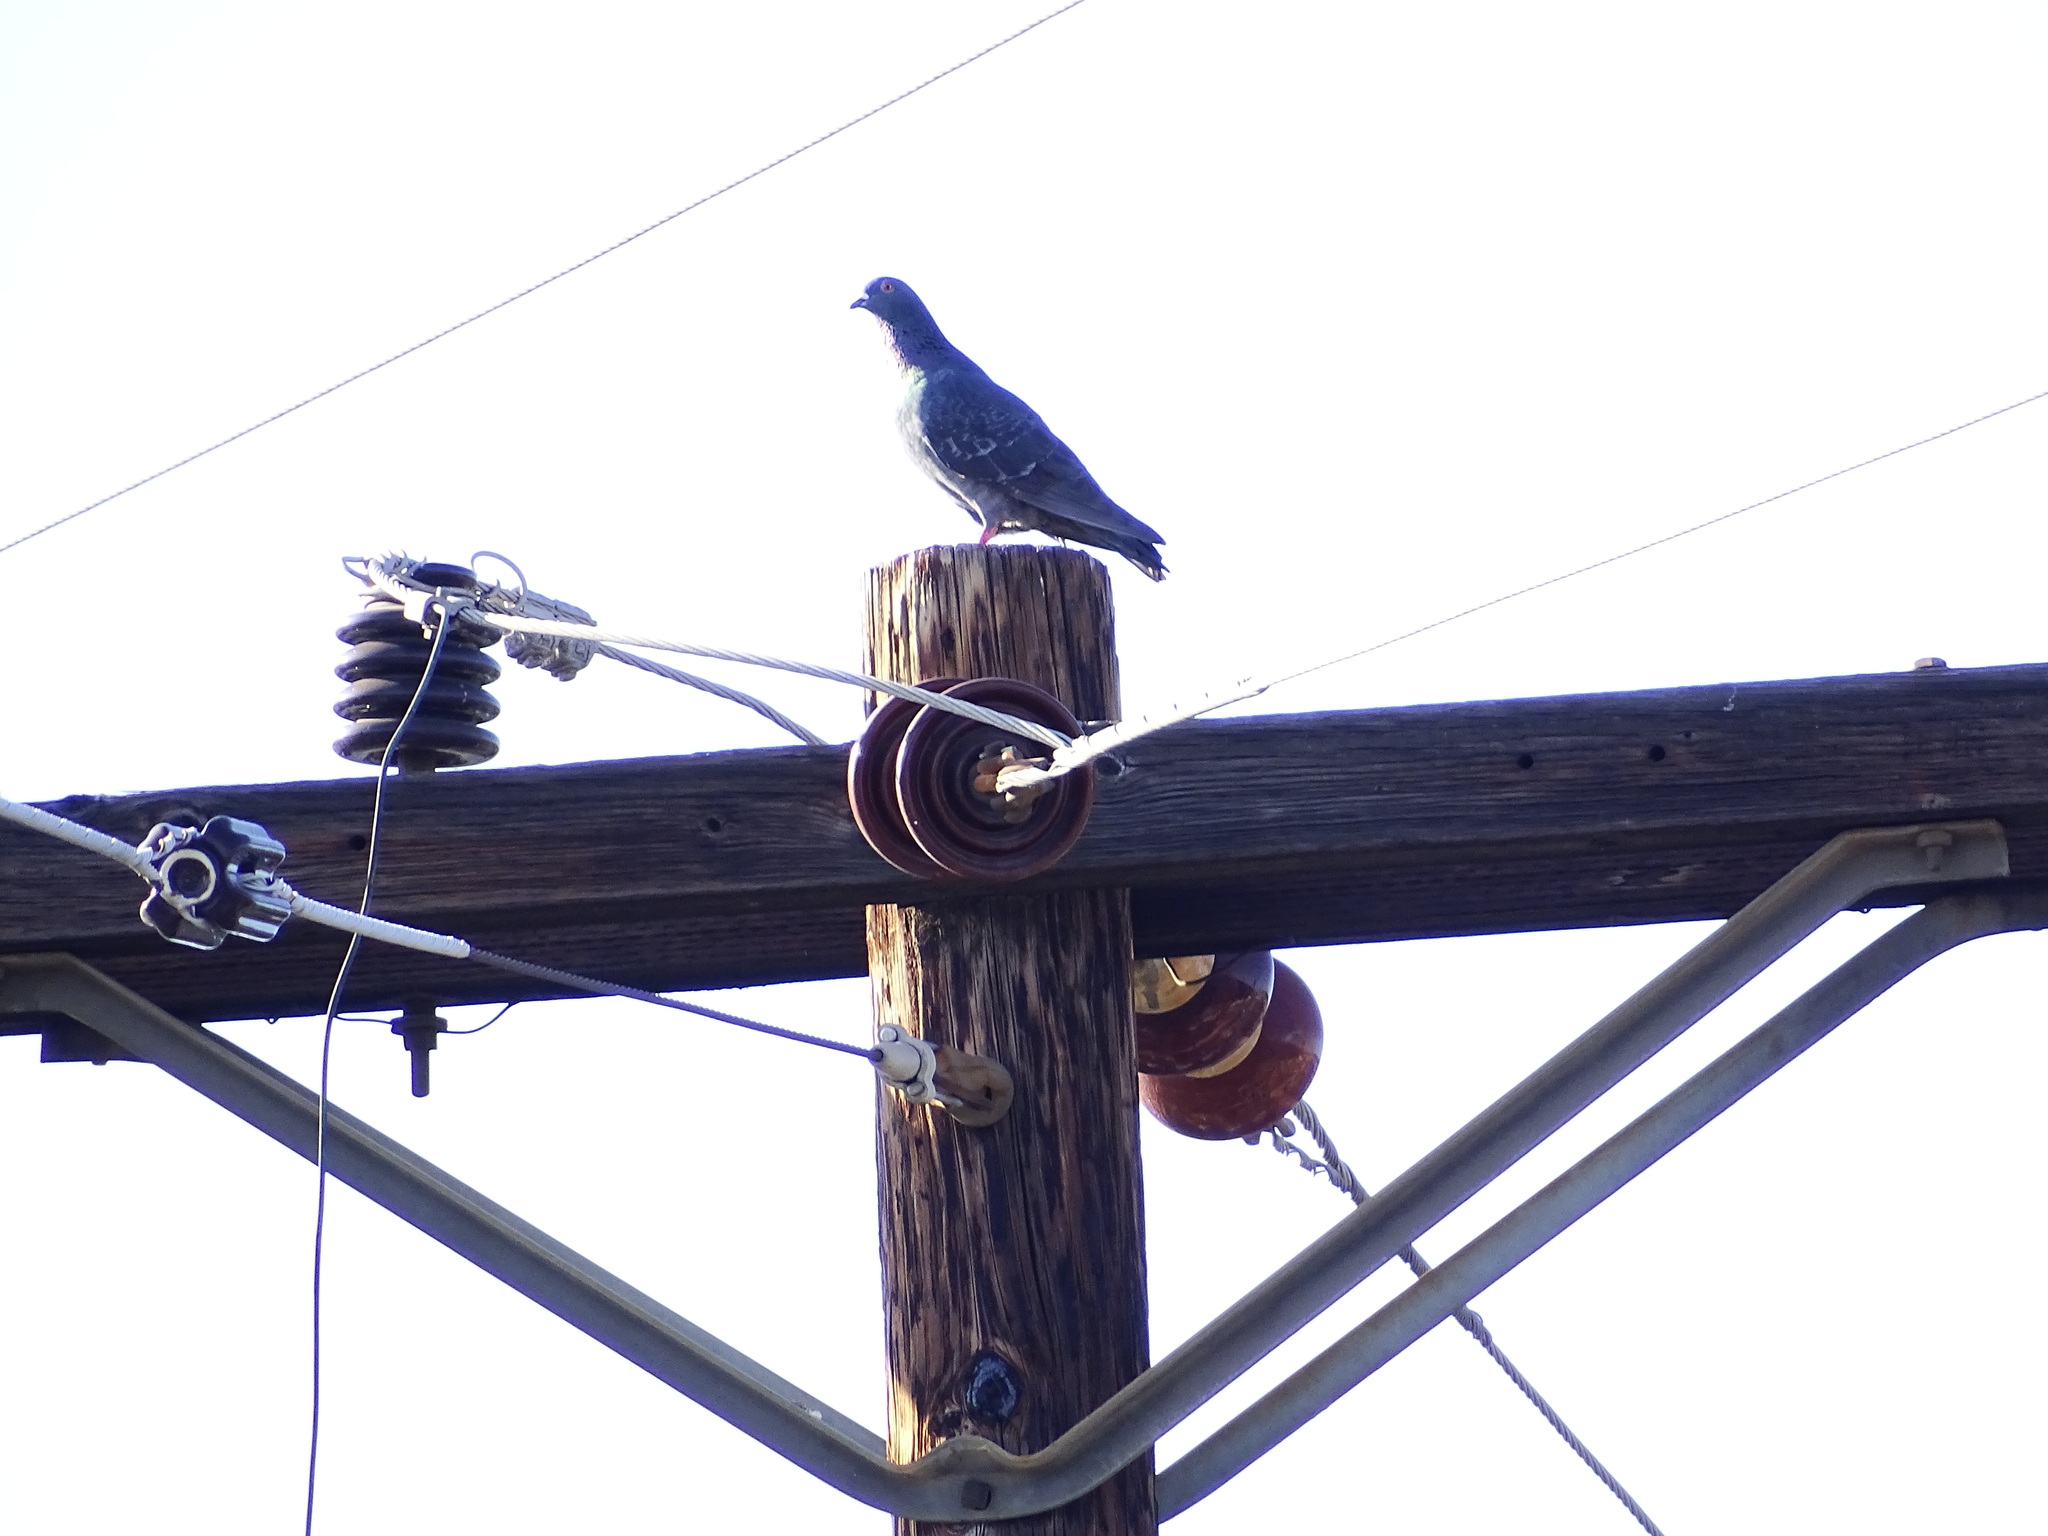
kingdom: Animalia
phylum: Chordata
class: Aves
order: Columbiformes
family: Columbidae
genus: Columba
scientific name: Columba livia
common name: Rock pigeon
